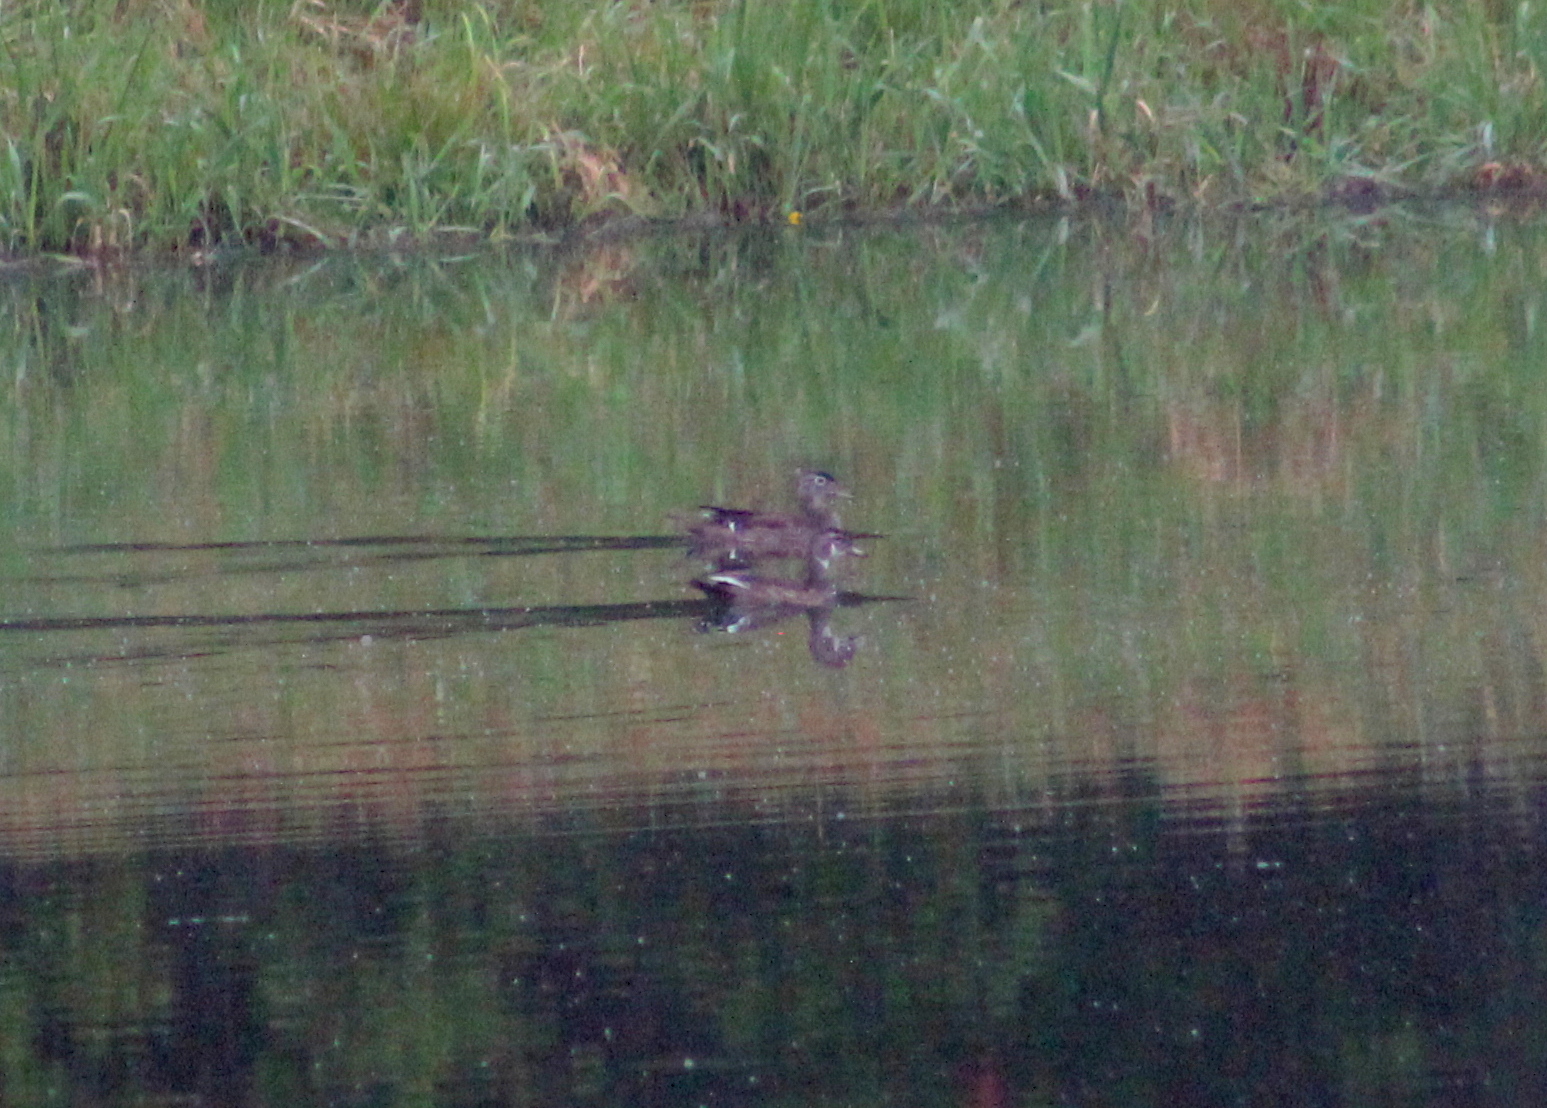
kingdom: Animalia
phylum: Chordata
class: Aves
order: Anseriformes
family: Anatidae
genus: Aix
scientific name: Aix sponsa
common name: Wood duck
